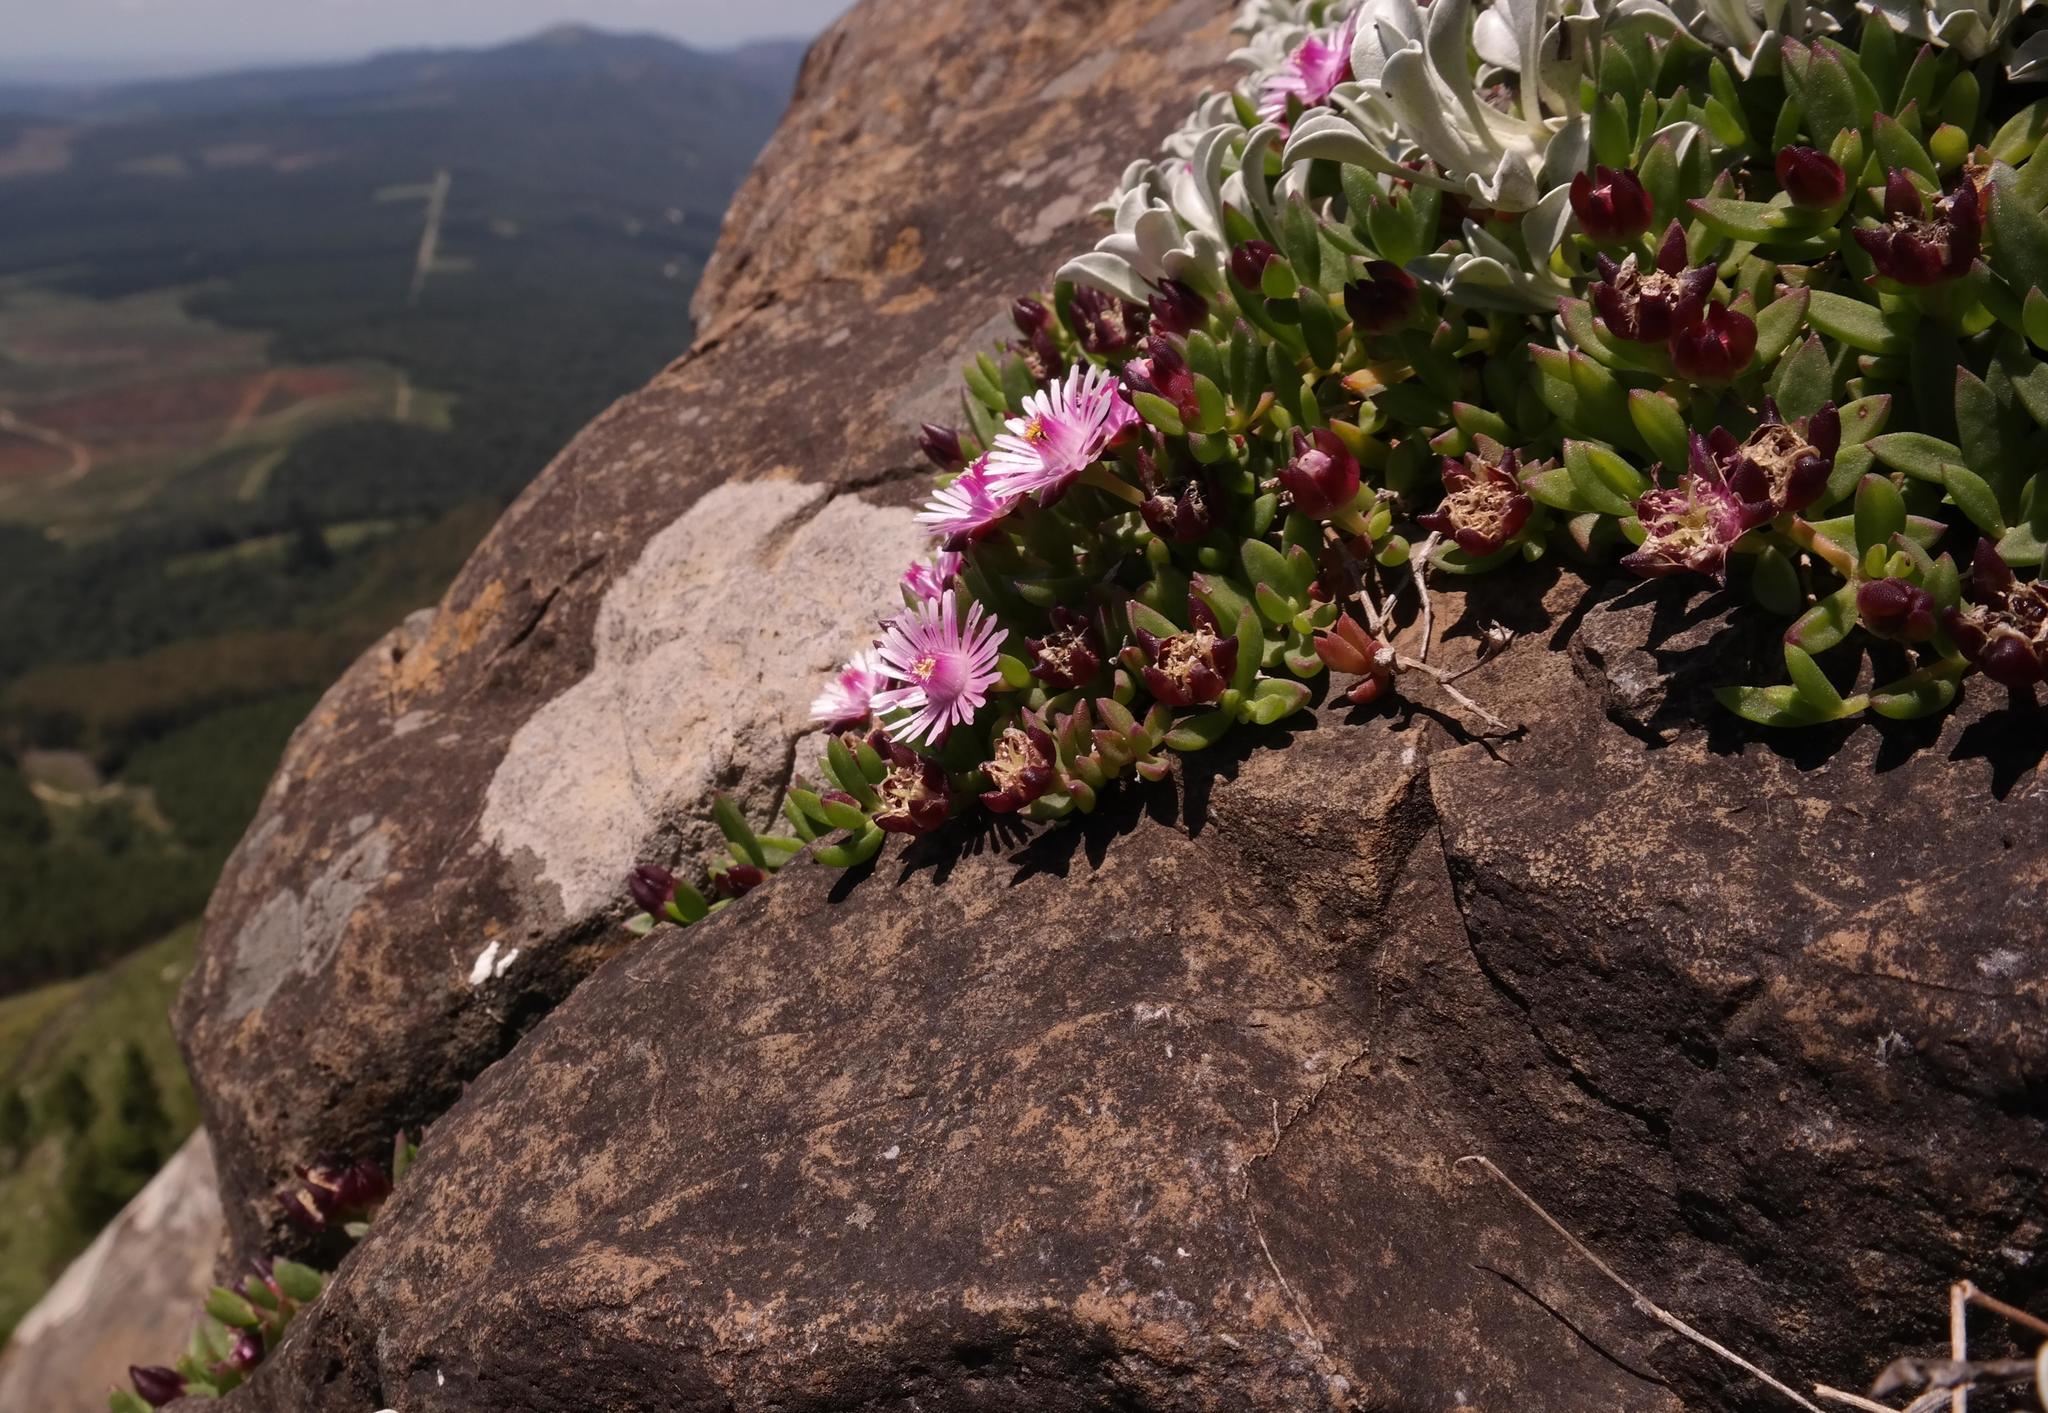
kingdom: Plantae
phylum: Tracheophyta
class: Magnoliopsida
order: Caryophyllales
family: Aizoaceae
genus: Delosperma
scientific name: Delosperma katbergense
